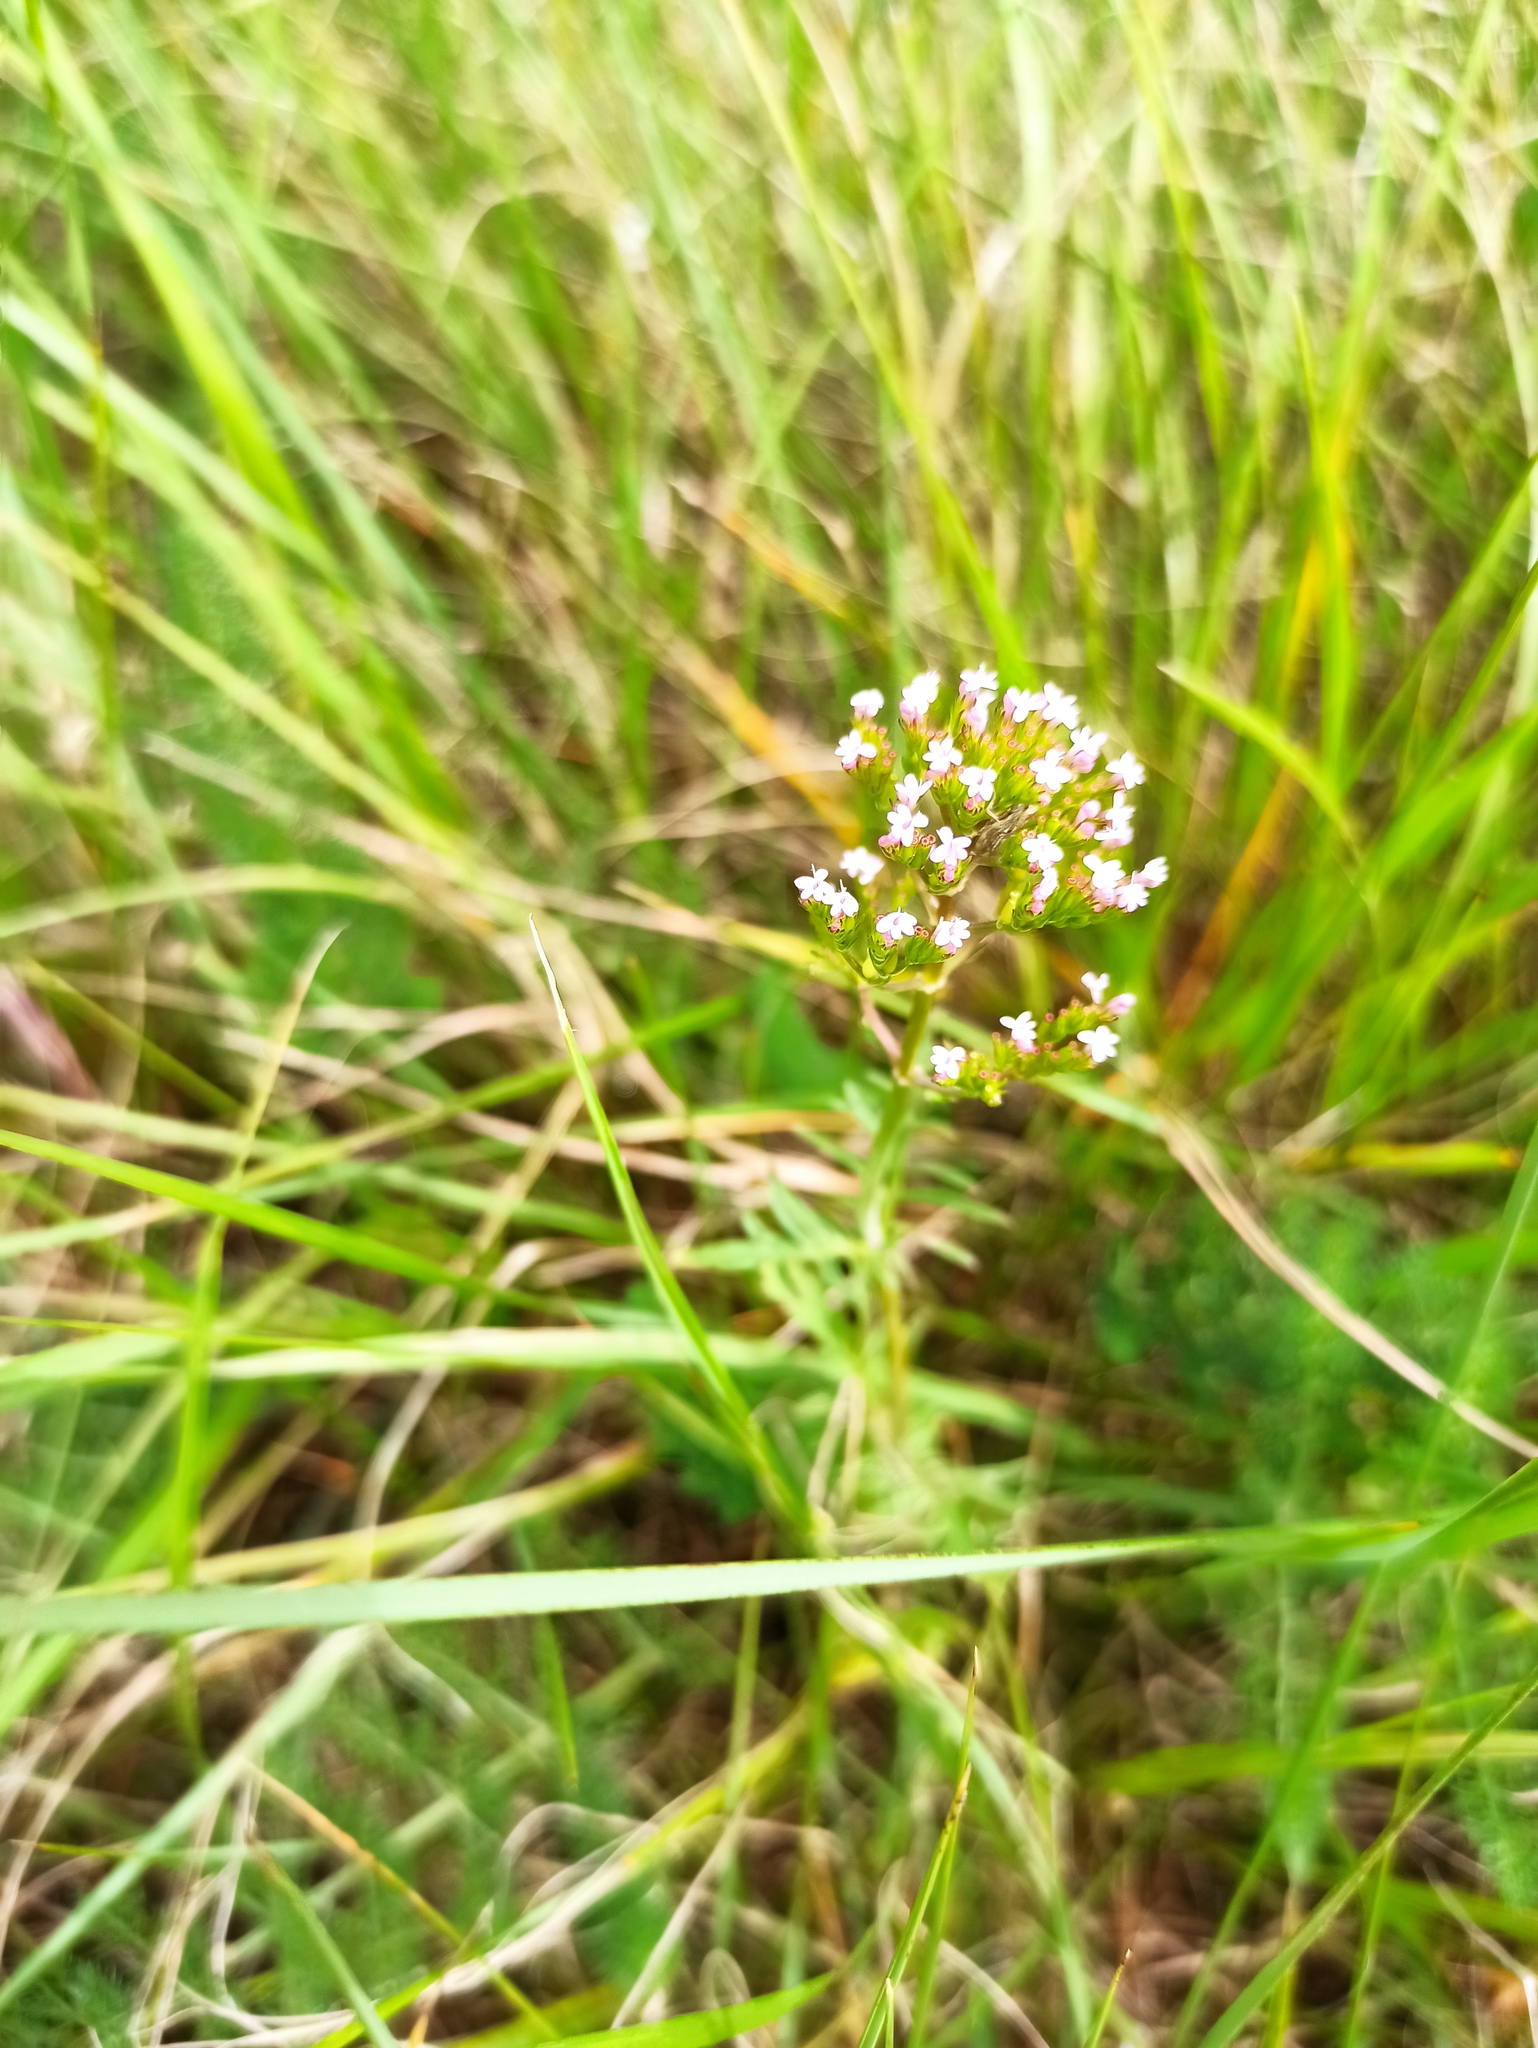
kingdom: Plantae
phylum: Tracheophyta
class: Magnoliopsida
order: Dipsacales
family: Caprifoliaceae
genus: Centranthus
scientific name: Centranthus calcitrapae
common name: Annual valerian
